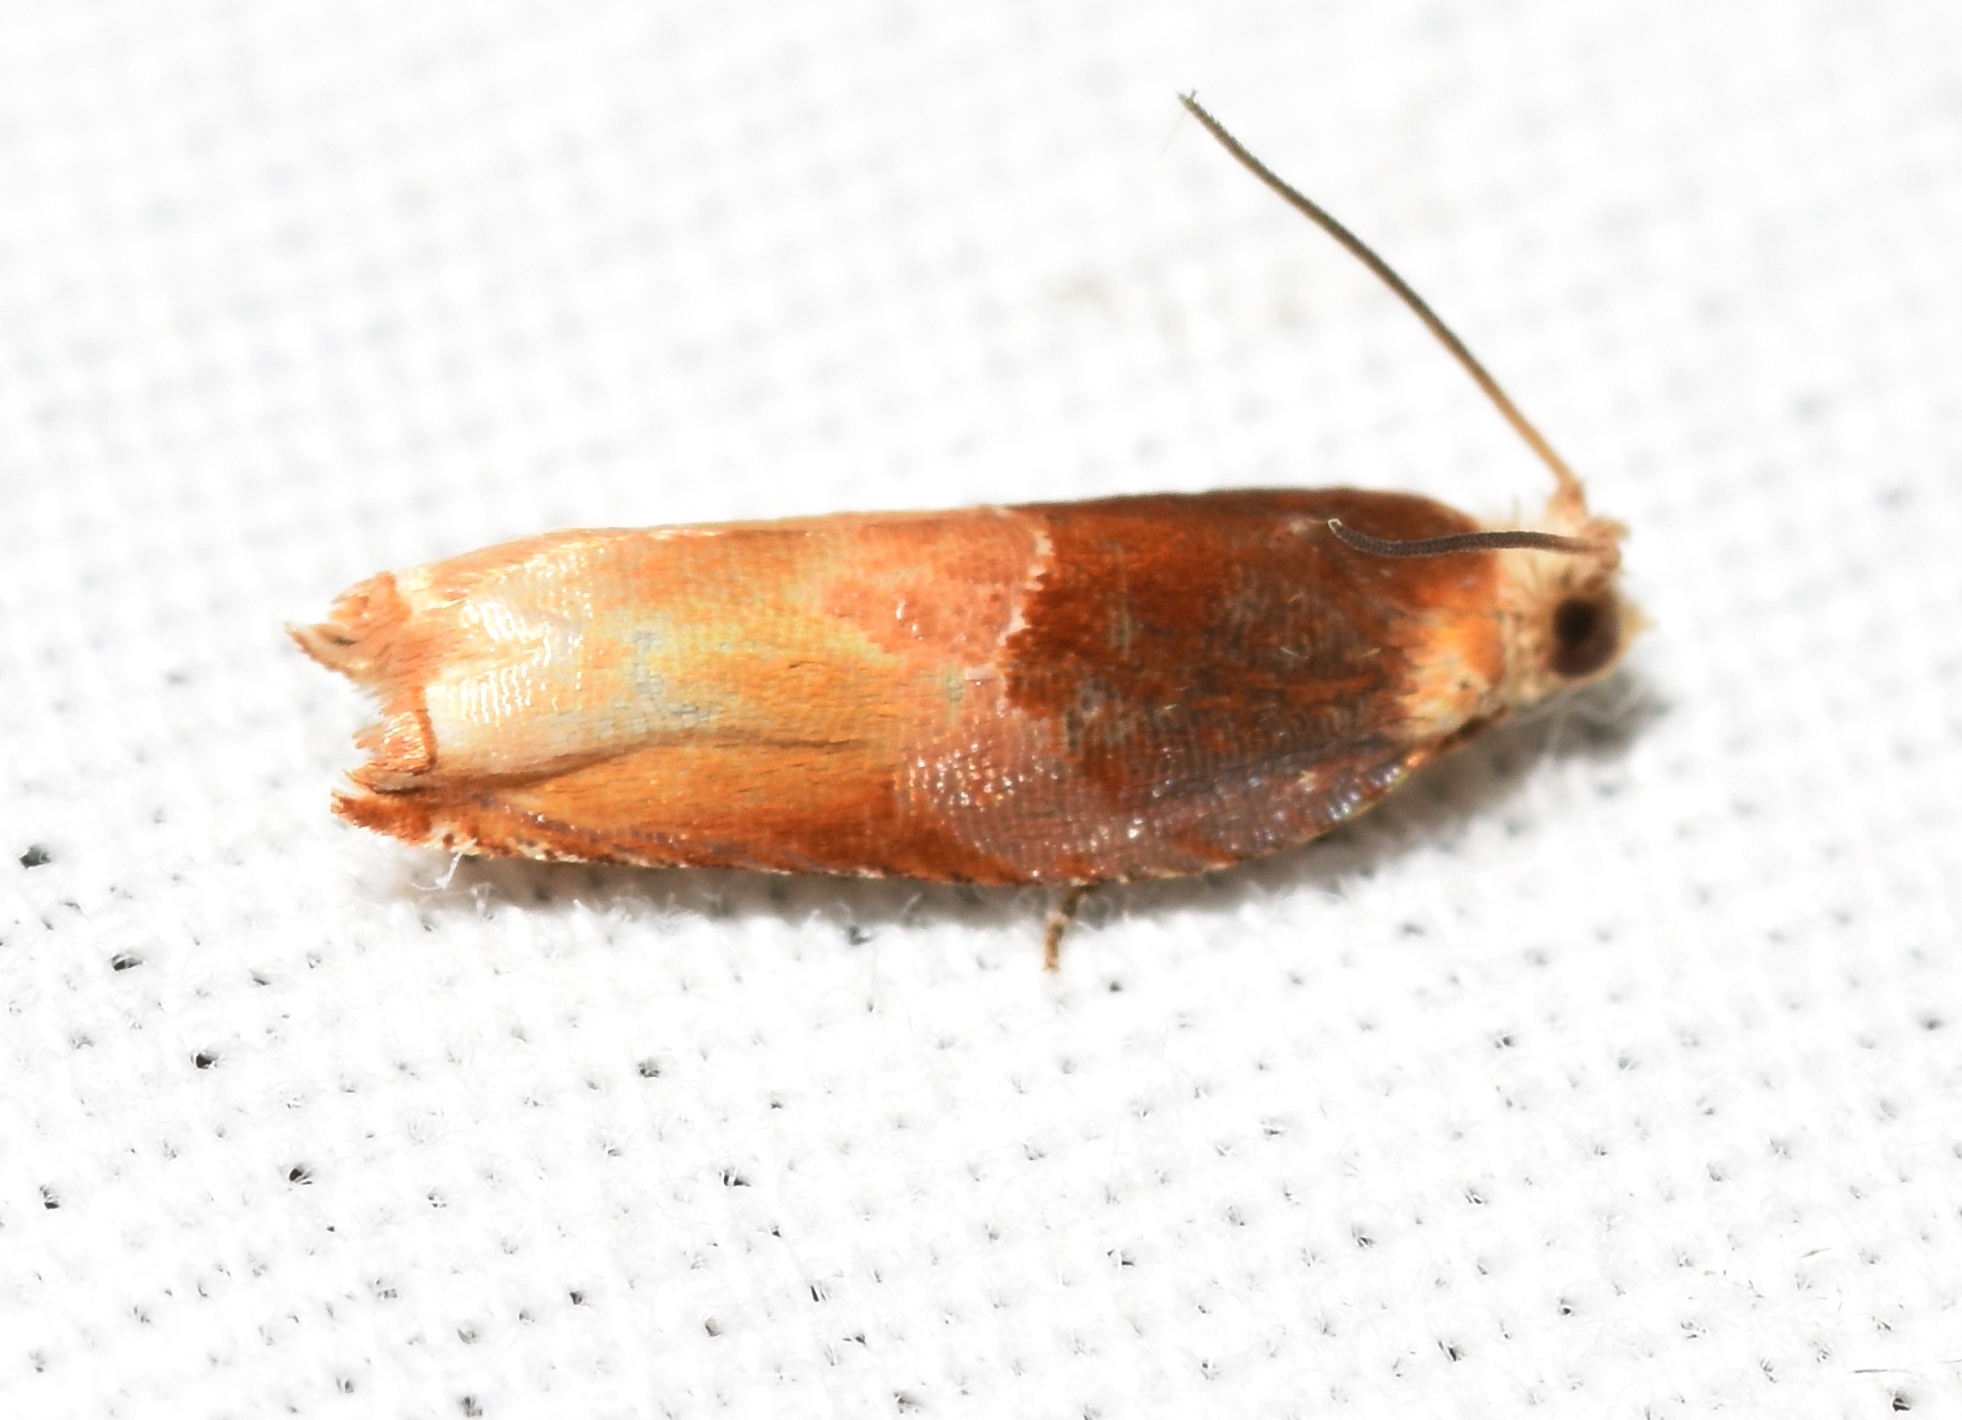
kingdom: Animalia
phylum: Arthropoda
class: Insecta
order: Lepidoptera
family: Tortricidae
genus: Ancylis
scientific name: Ancylis divisana
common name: Two-toned ancylis moth
